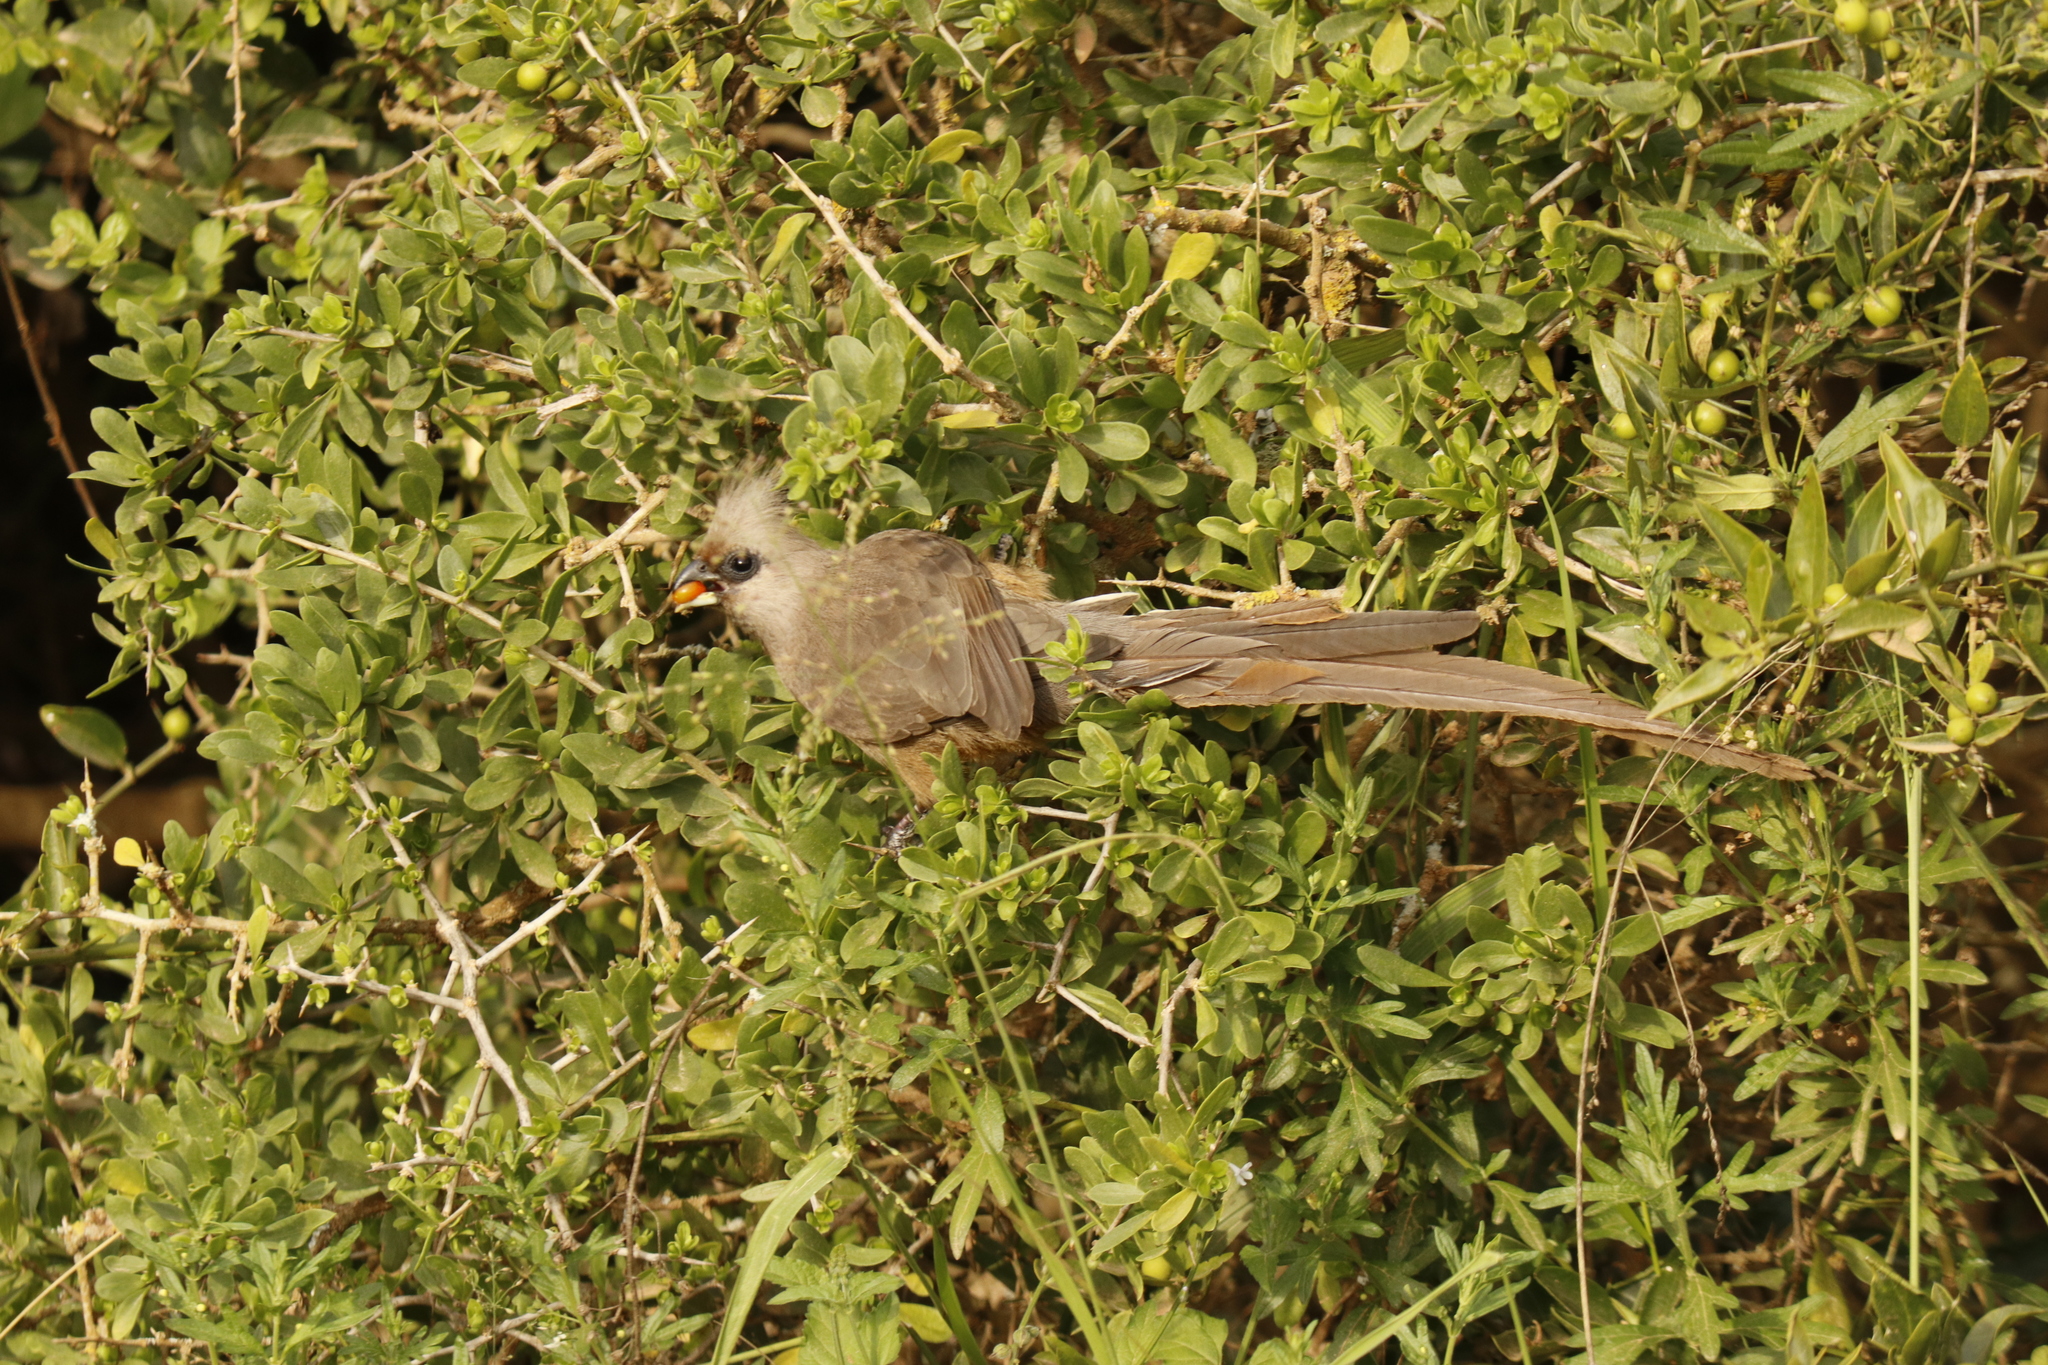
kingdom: Animalia
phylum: Chordata
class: Aves
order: Coliiformes
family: Coliidae
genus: Colius
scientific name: Colius striatus
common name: Speckled mousebird
